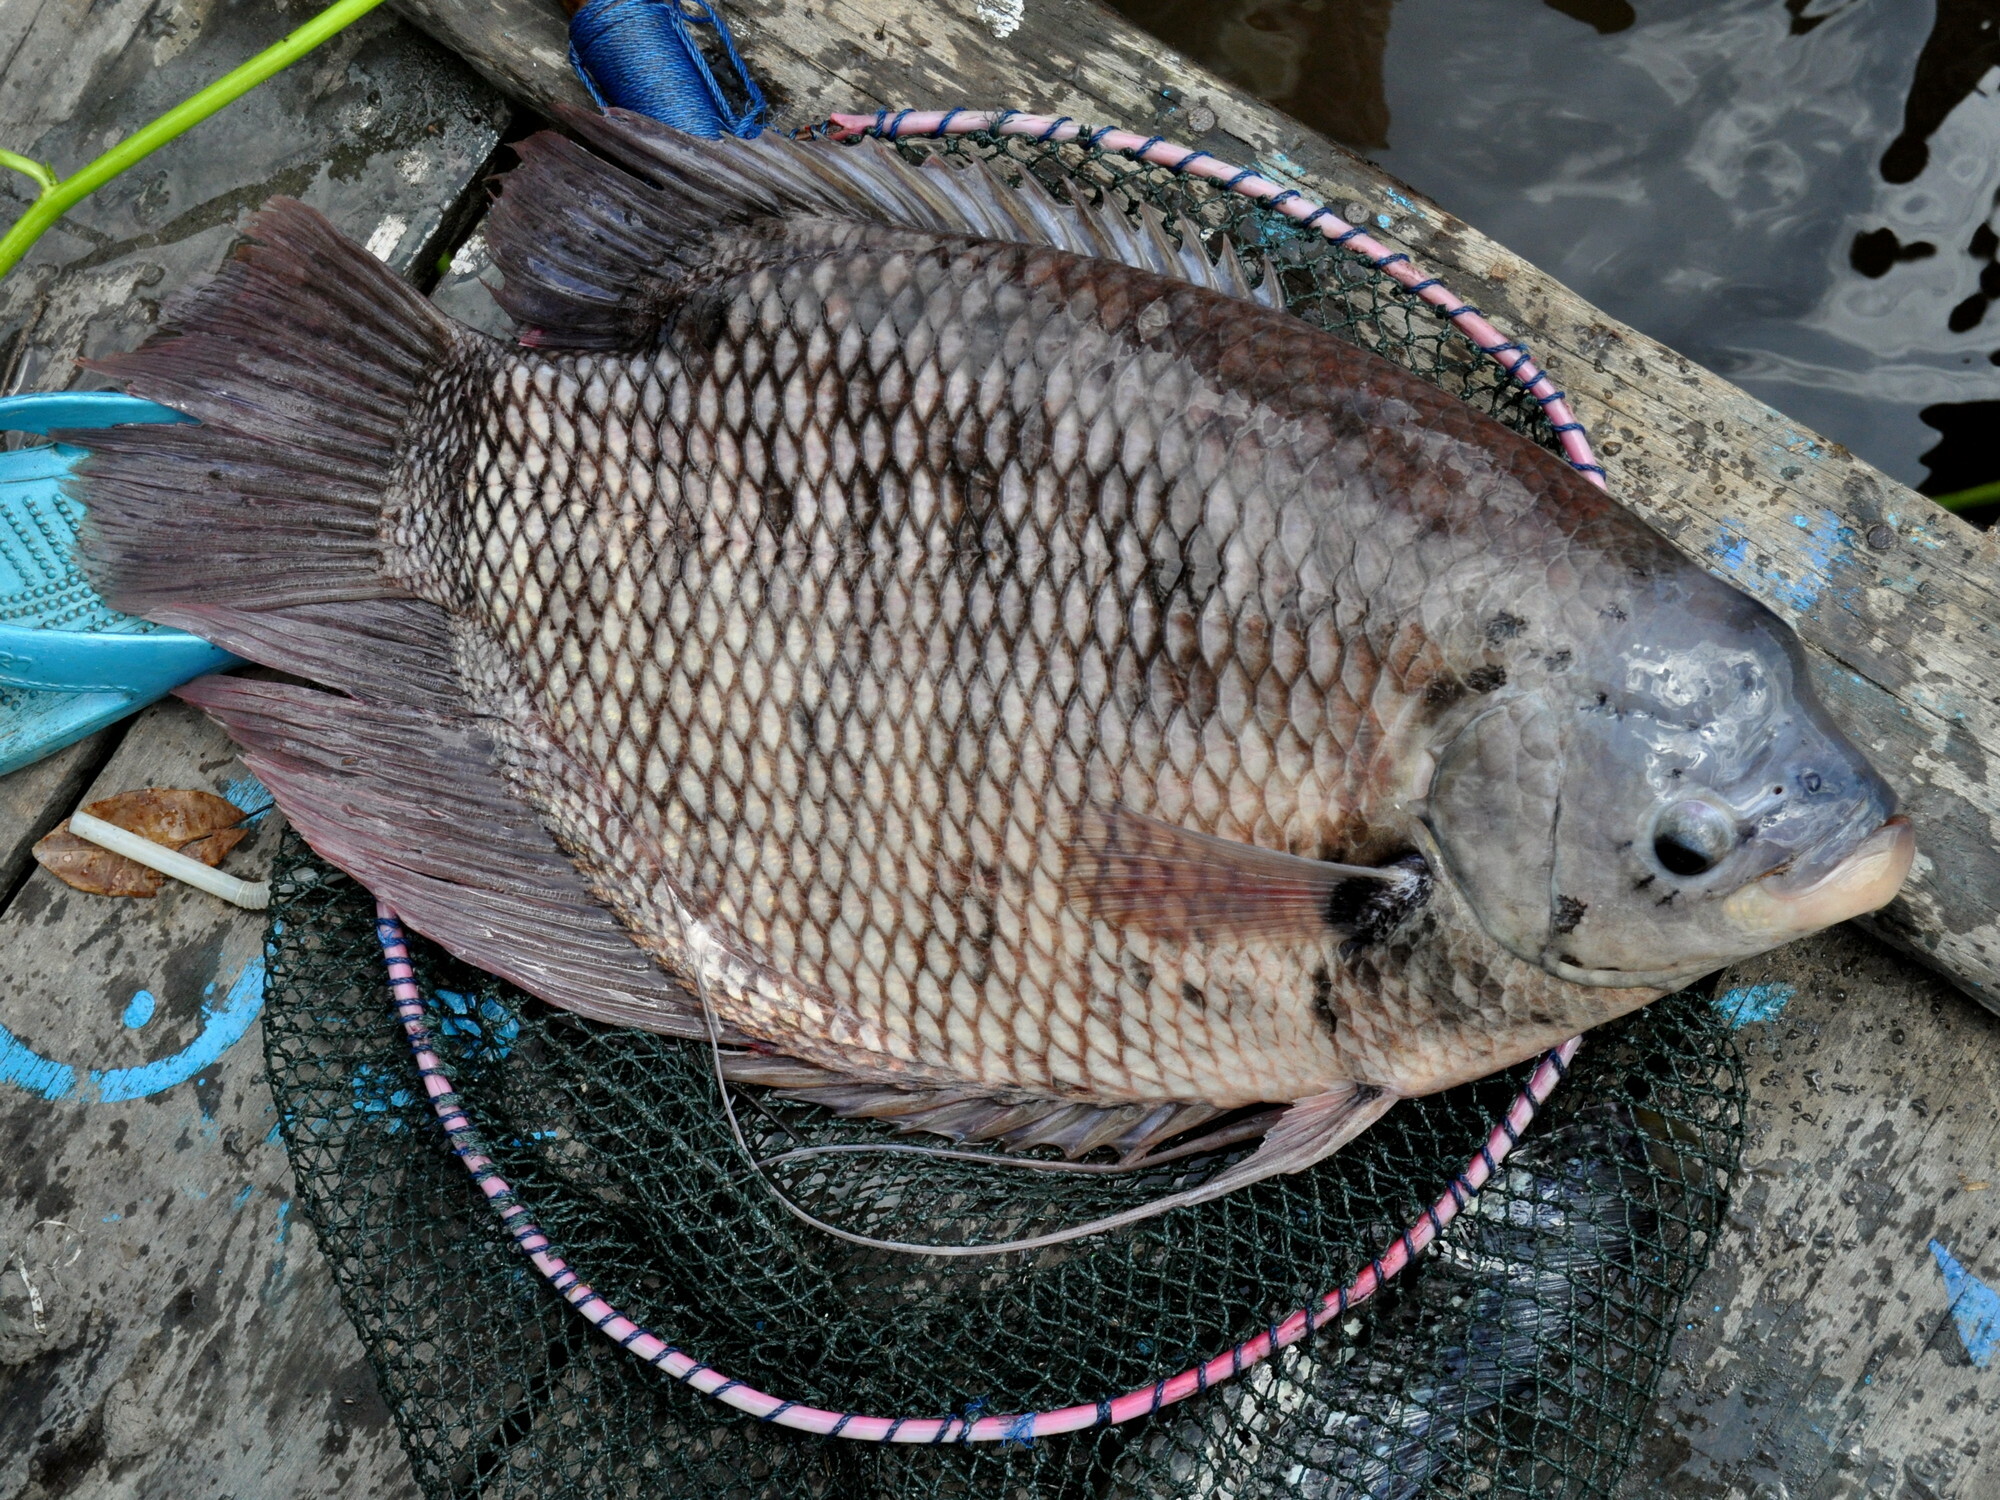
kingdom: Animalia
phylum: Chordata
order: Perciformes
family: Osphronemidae
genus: Osphronemus
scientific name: Osphronemus goramy
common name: Giant gourami
